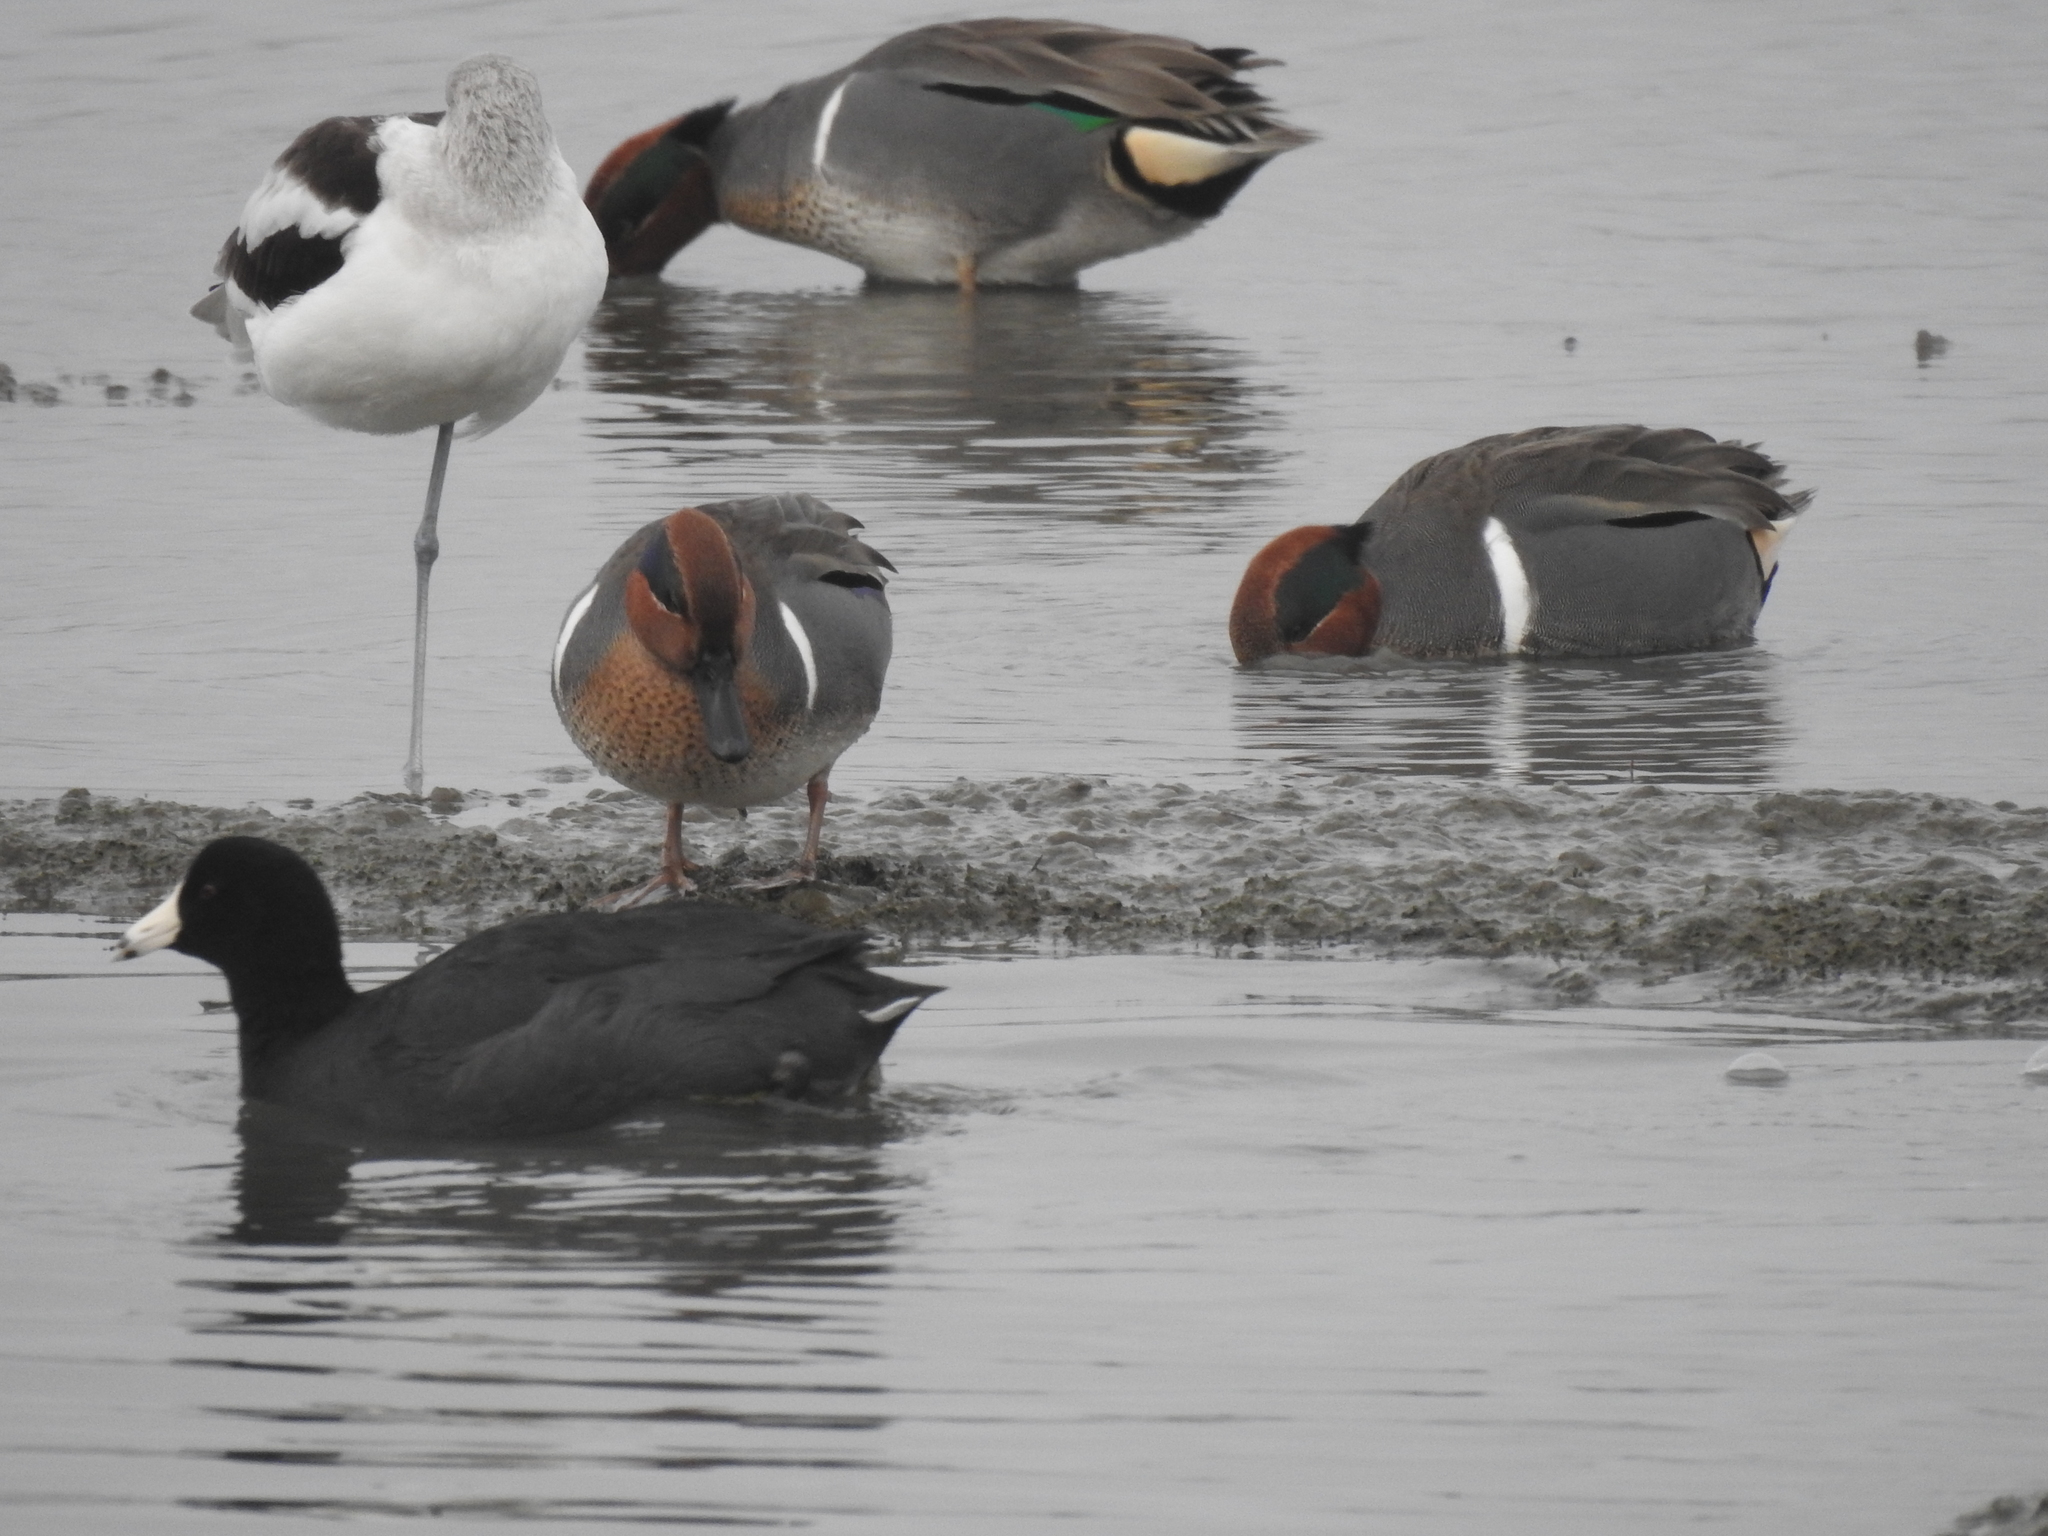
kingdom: Animalia
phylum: Chordata
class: Aves
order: Charadriiformes
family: Recurvirostridae
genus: Recurvirostra
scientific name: Recurvirostra americana
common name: American avocet
